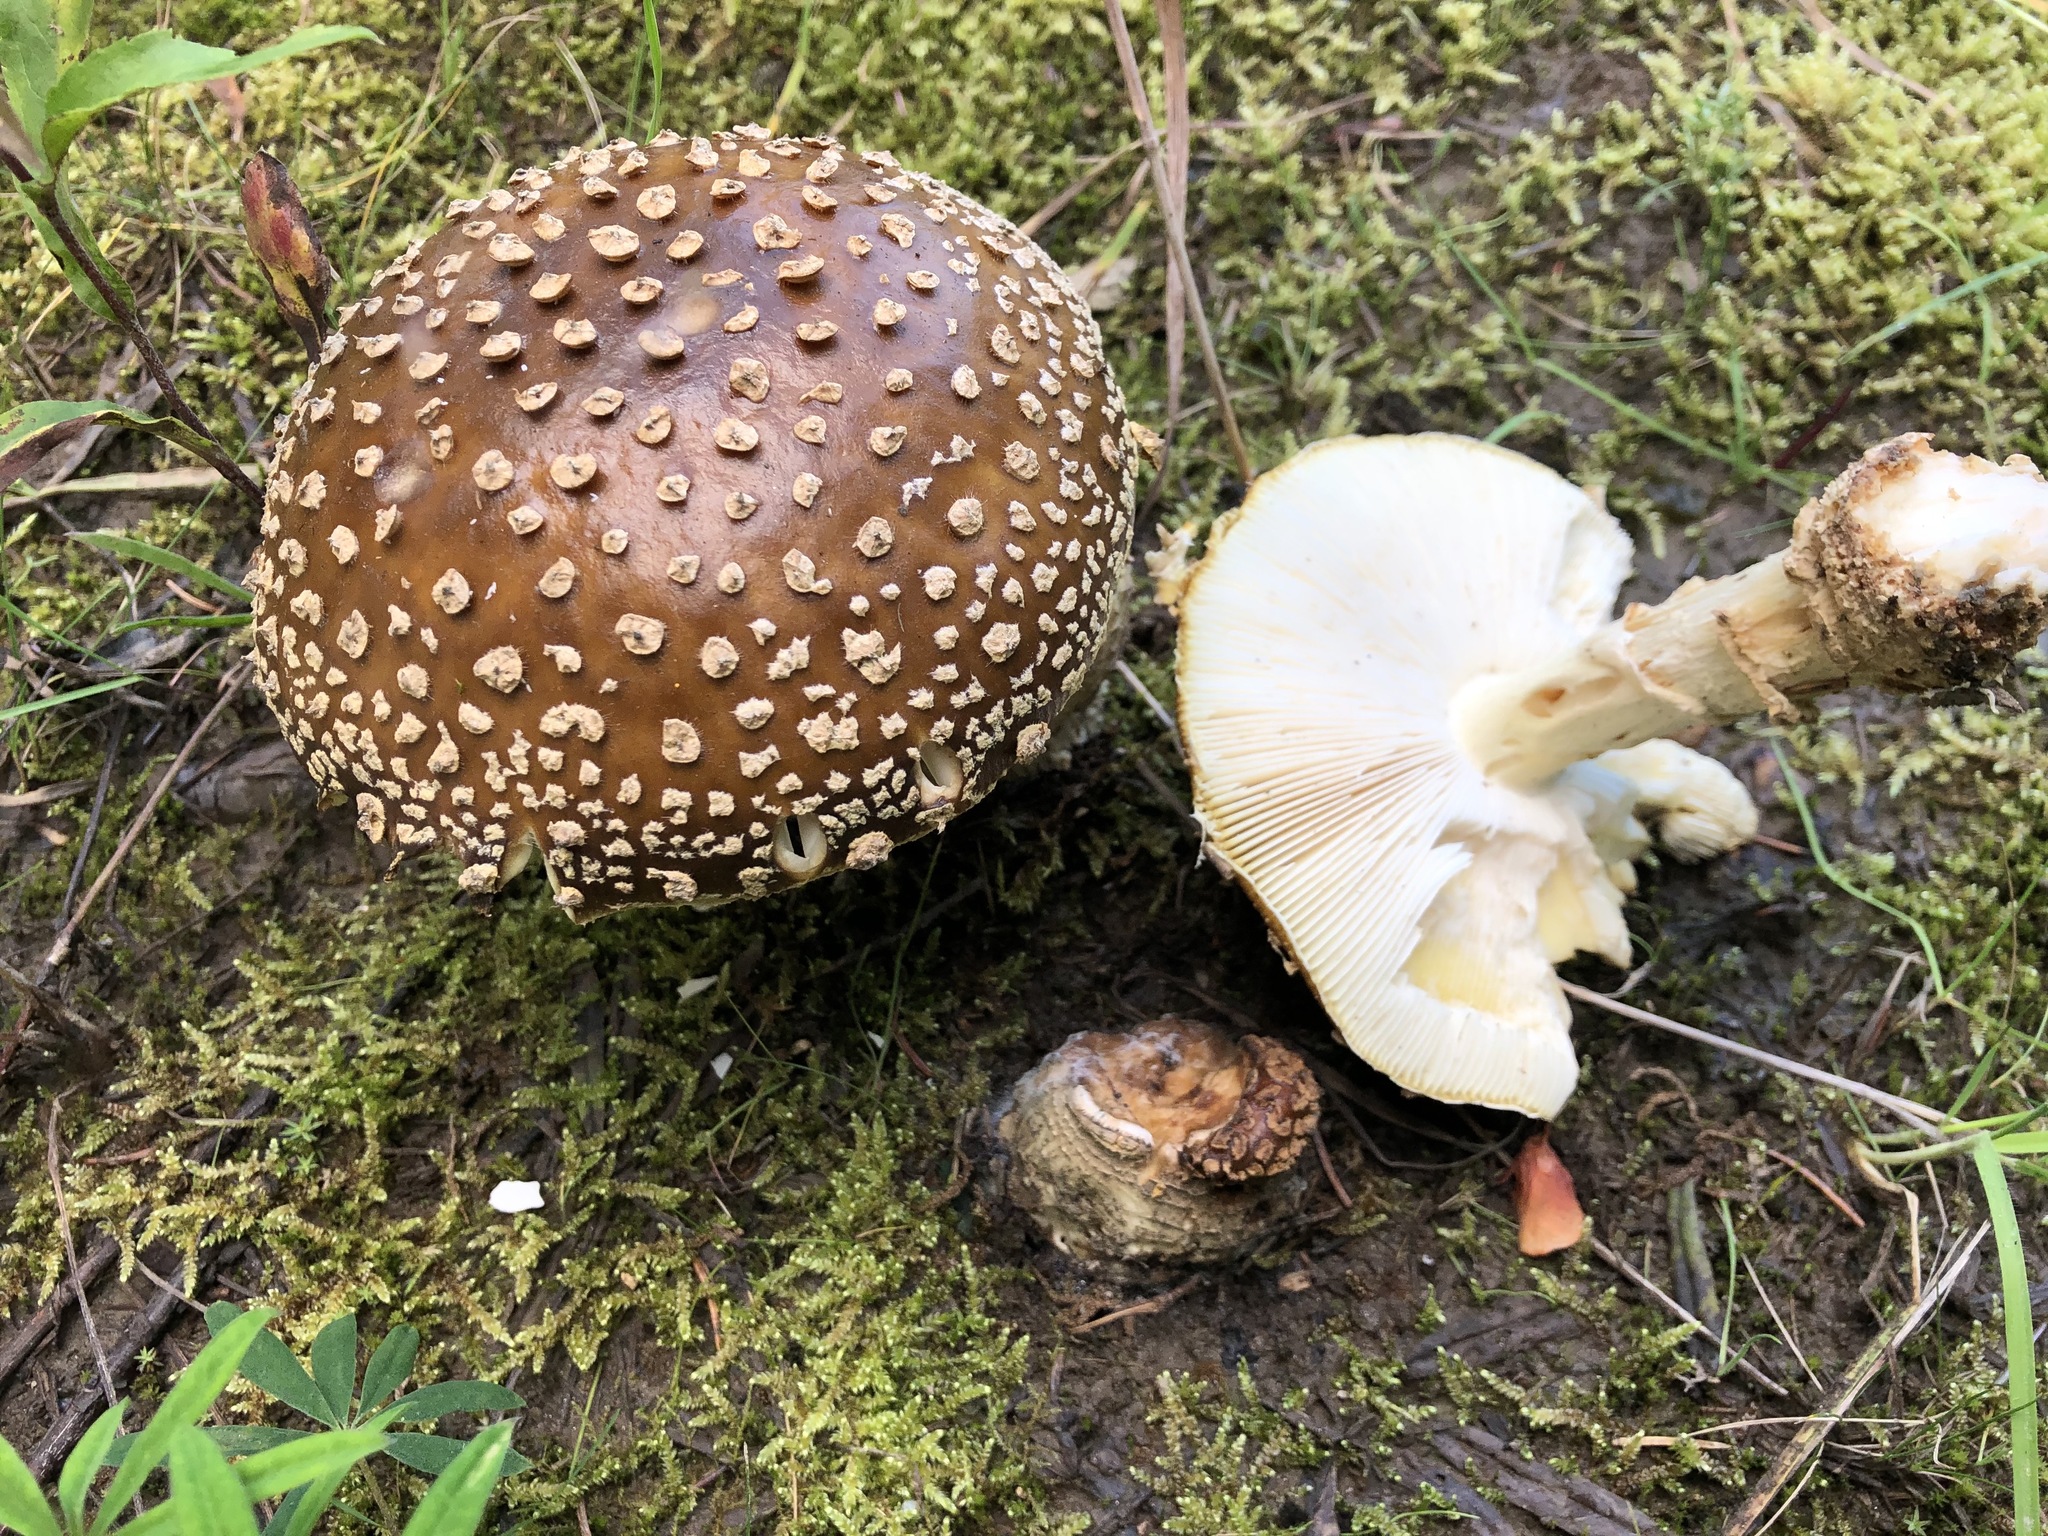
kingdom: Fungi
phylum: Basidiomycota
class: Agaricomycetes
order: Agaricales
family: Amanitaceae
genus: Amanita
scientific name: Amanita regalis
